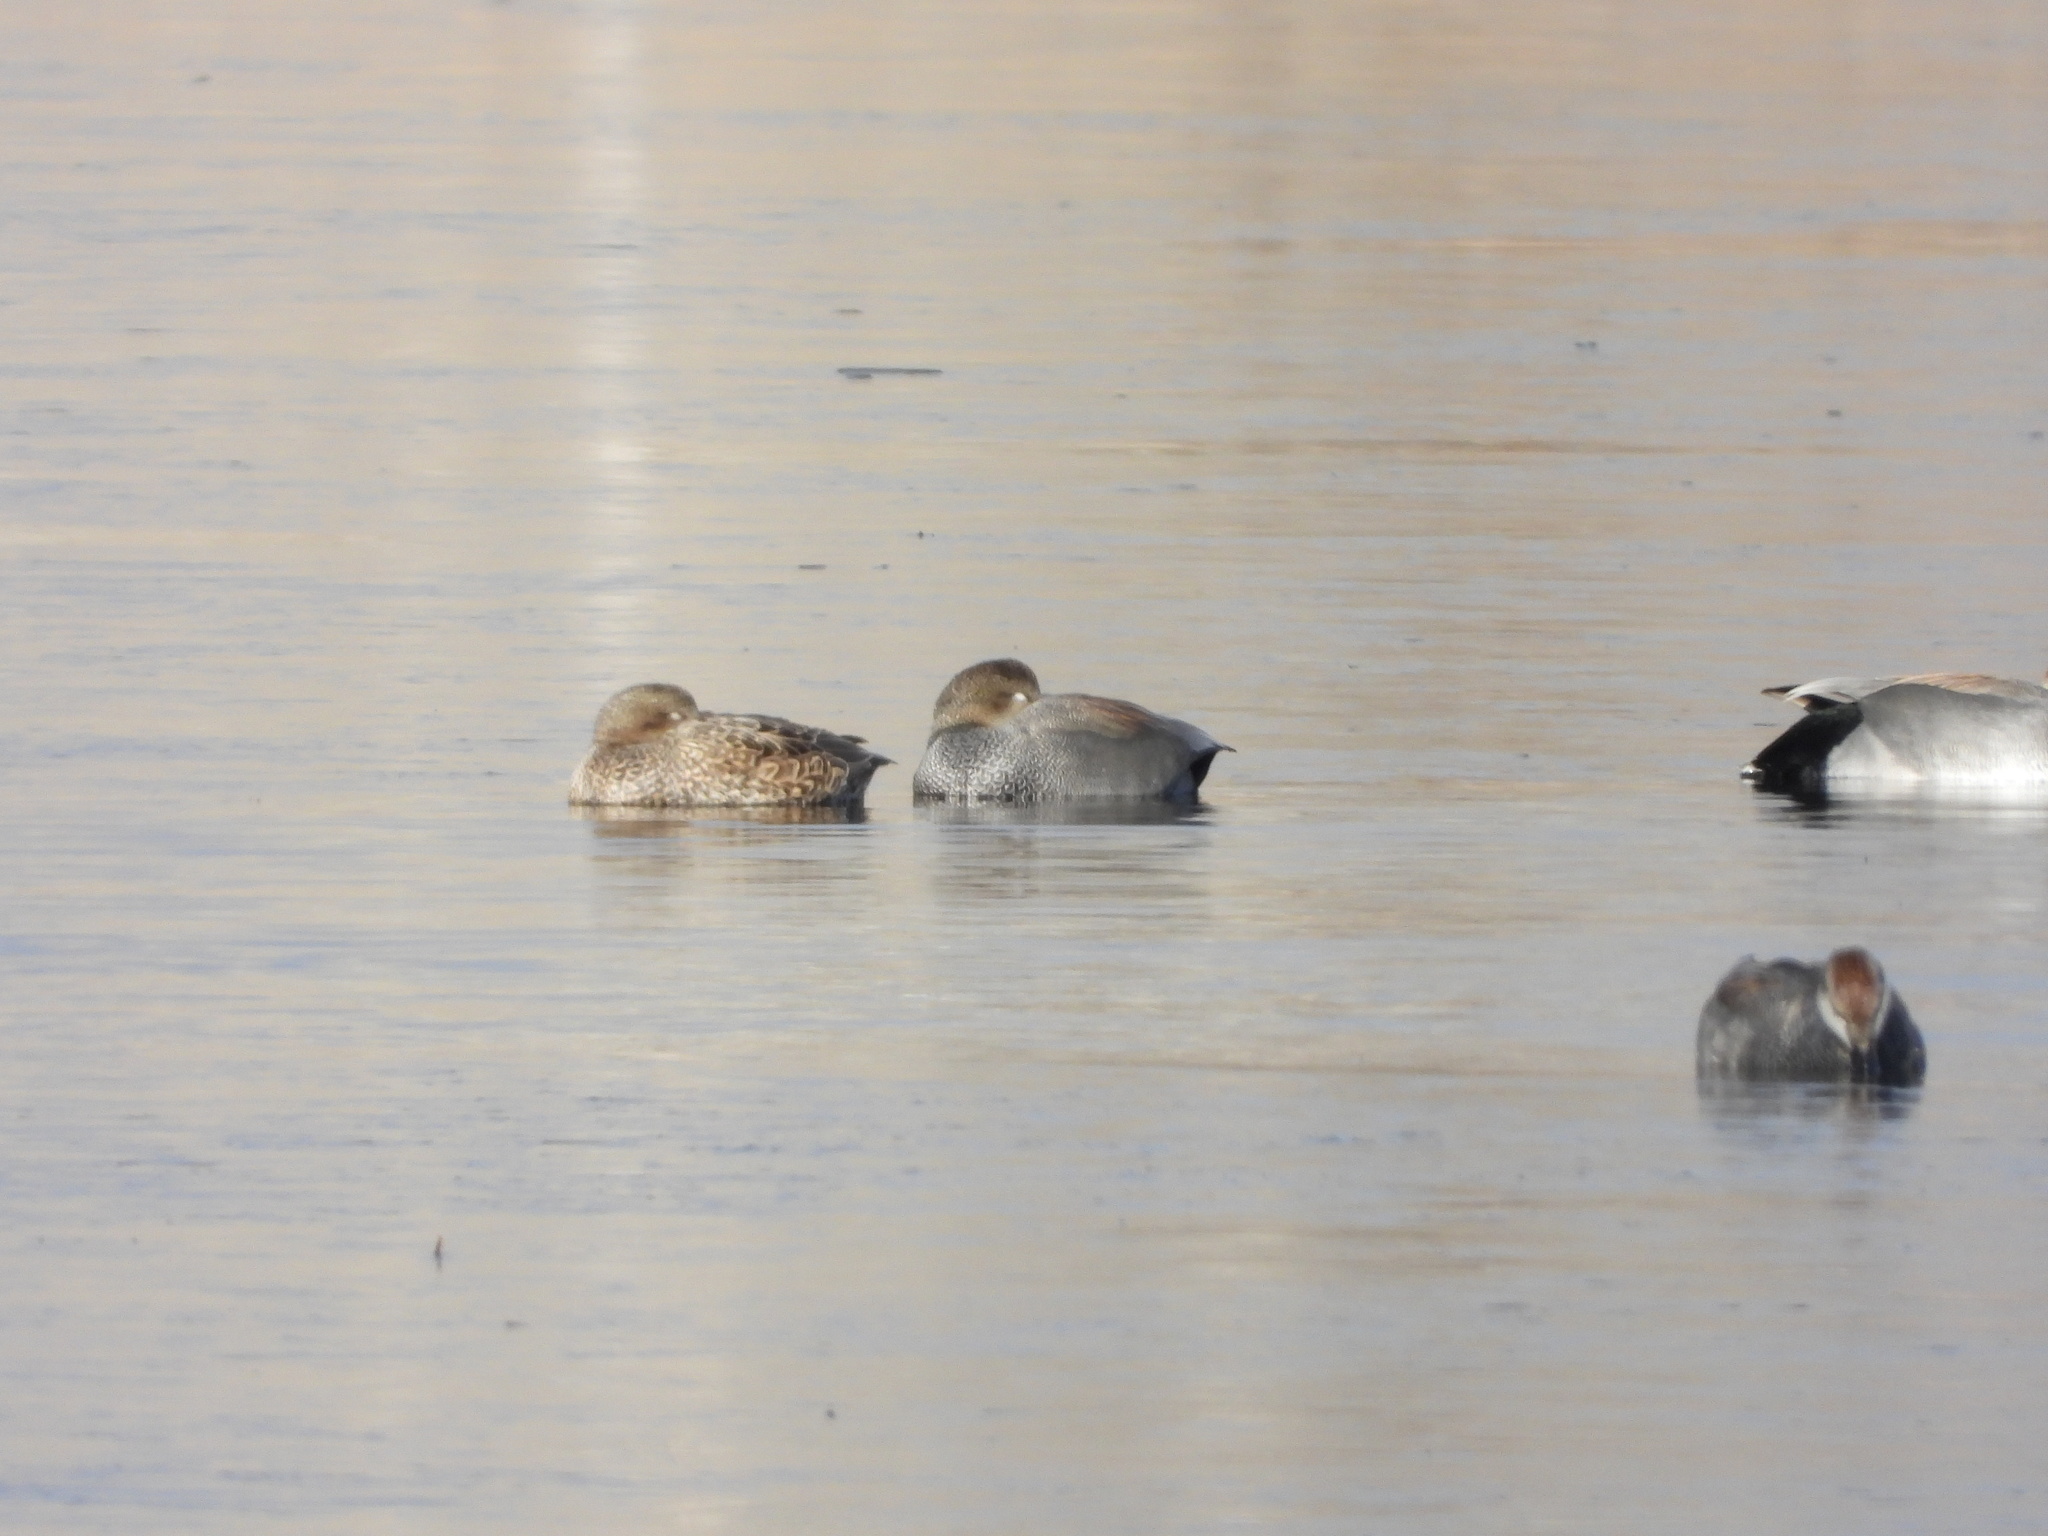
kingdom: Animalia
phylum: Chordata
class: Aves
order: Anseriformes
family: Anatidae
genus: Mareca
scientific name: Mareca strepera
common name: Gadwall
